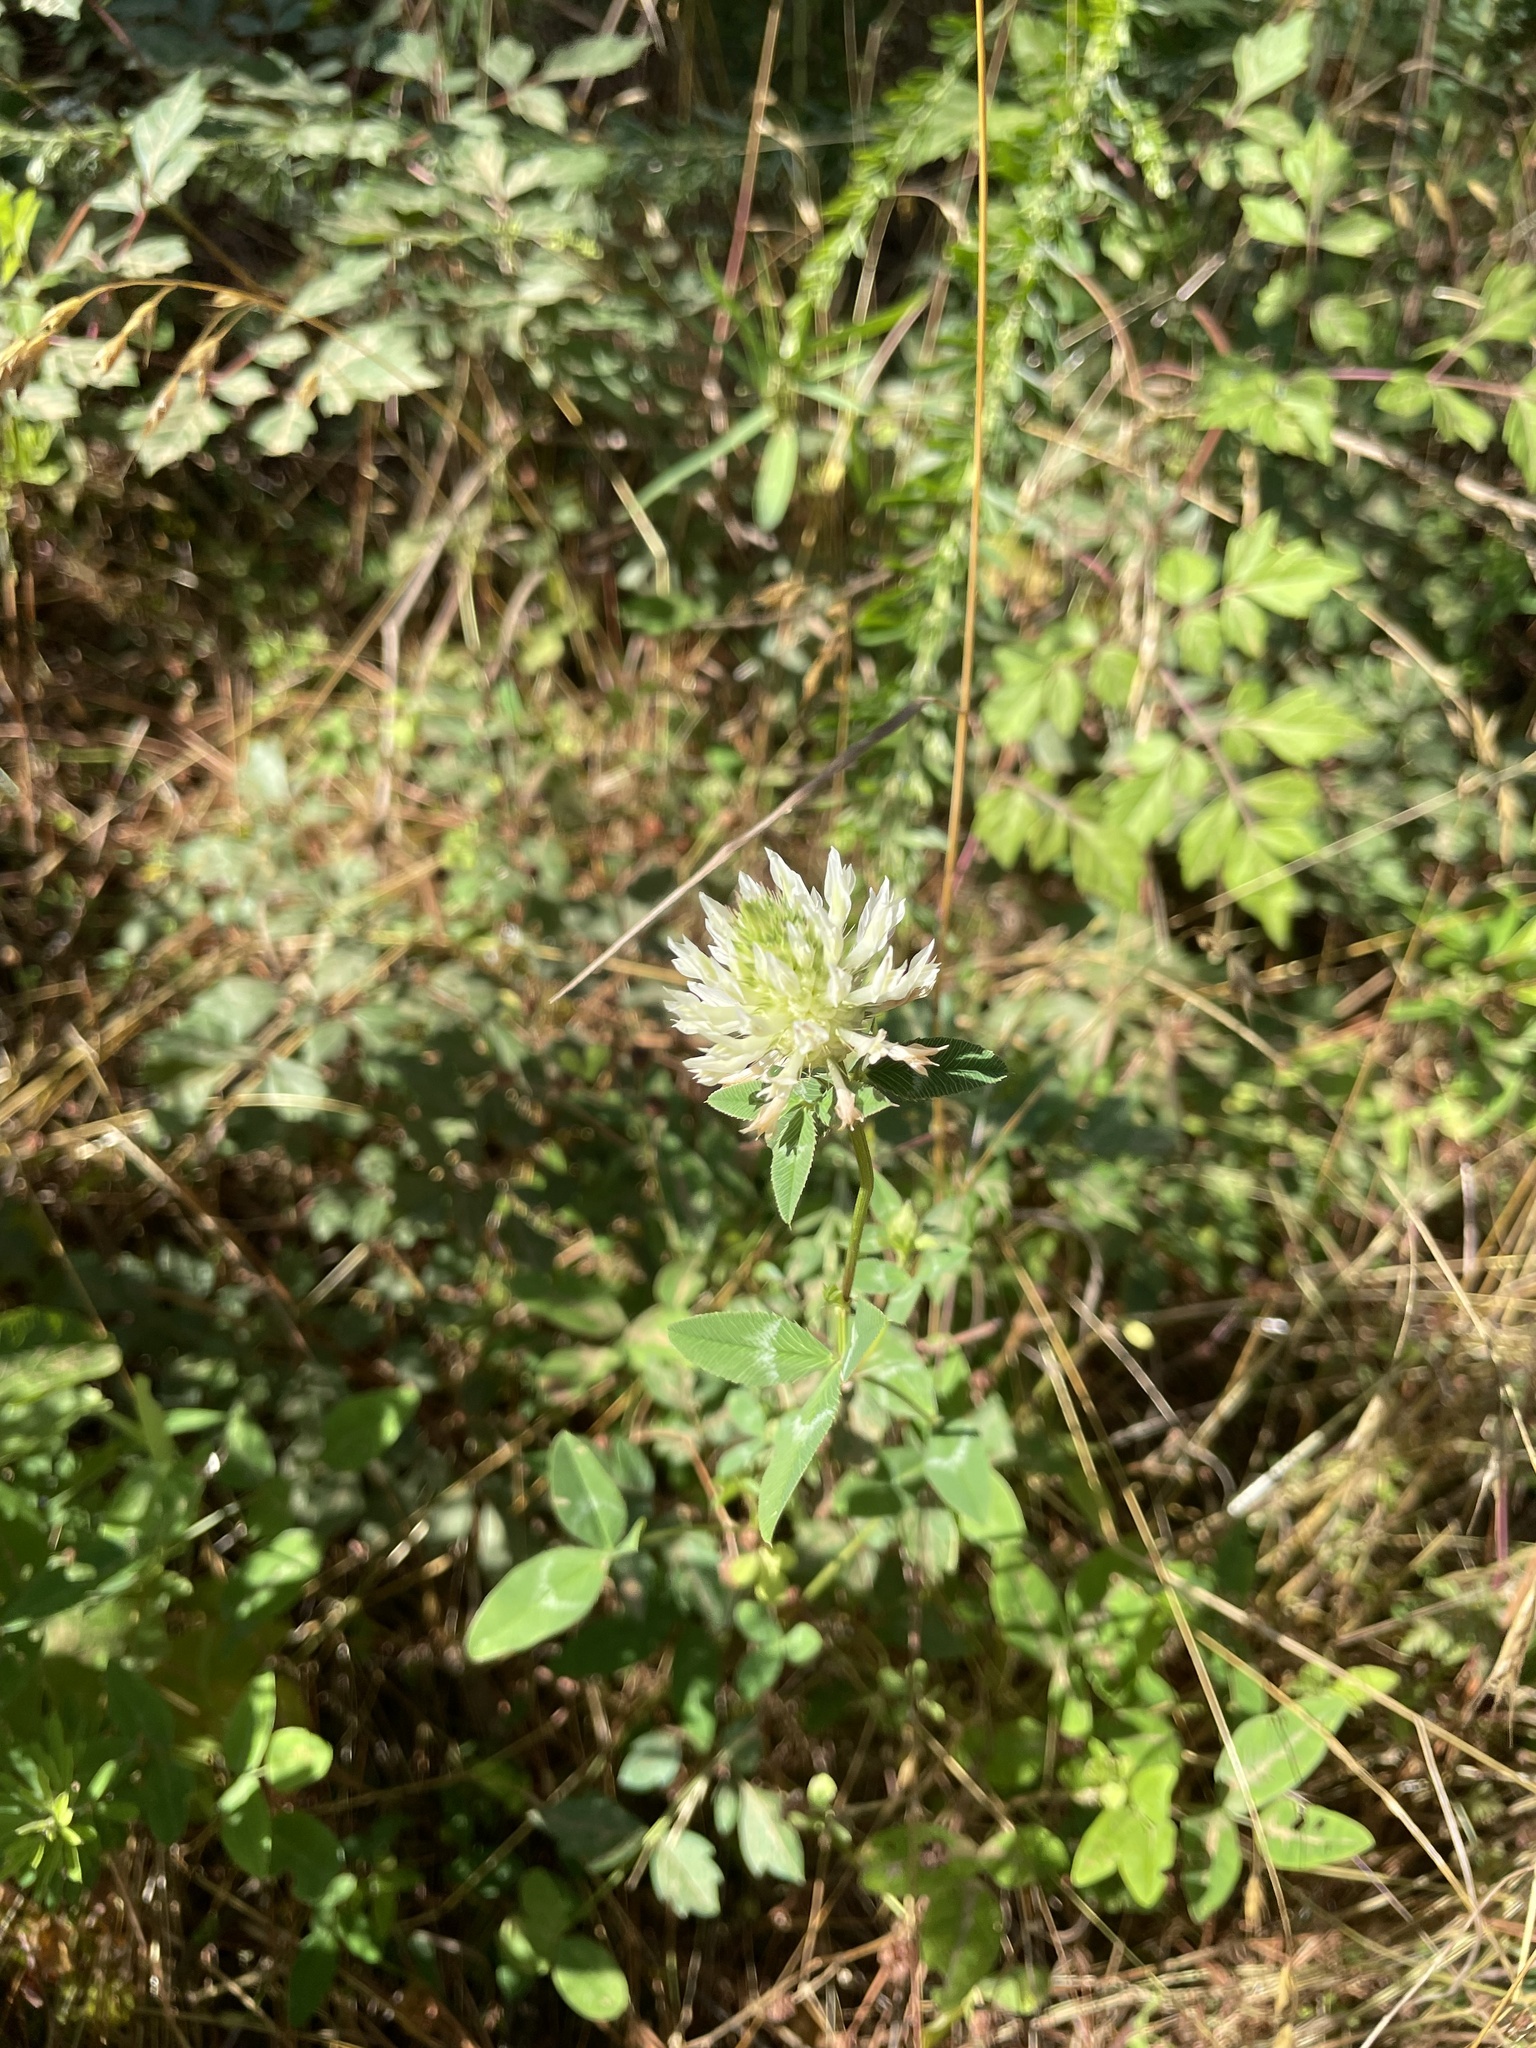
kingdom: Plantae
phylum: Tracheophyta
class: Magnoliopsida
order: Fabales
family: Fabaceae
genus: Trifolium
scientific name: Trifolium vesiculosum
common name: Arrowleaf clover
